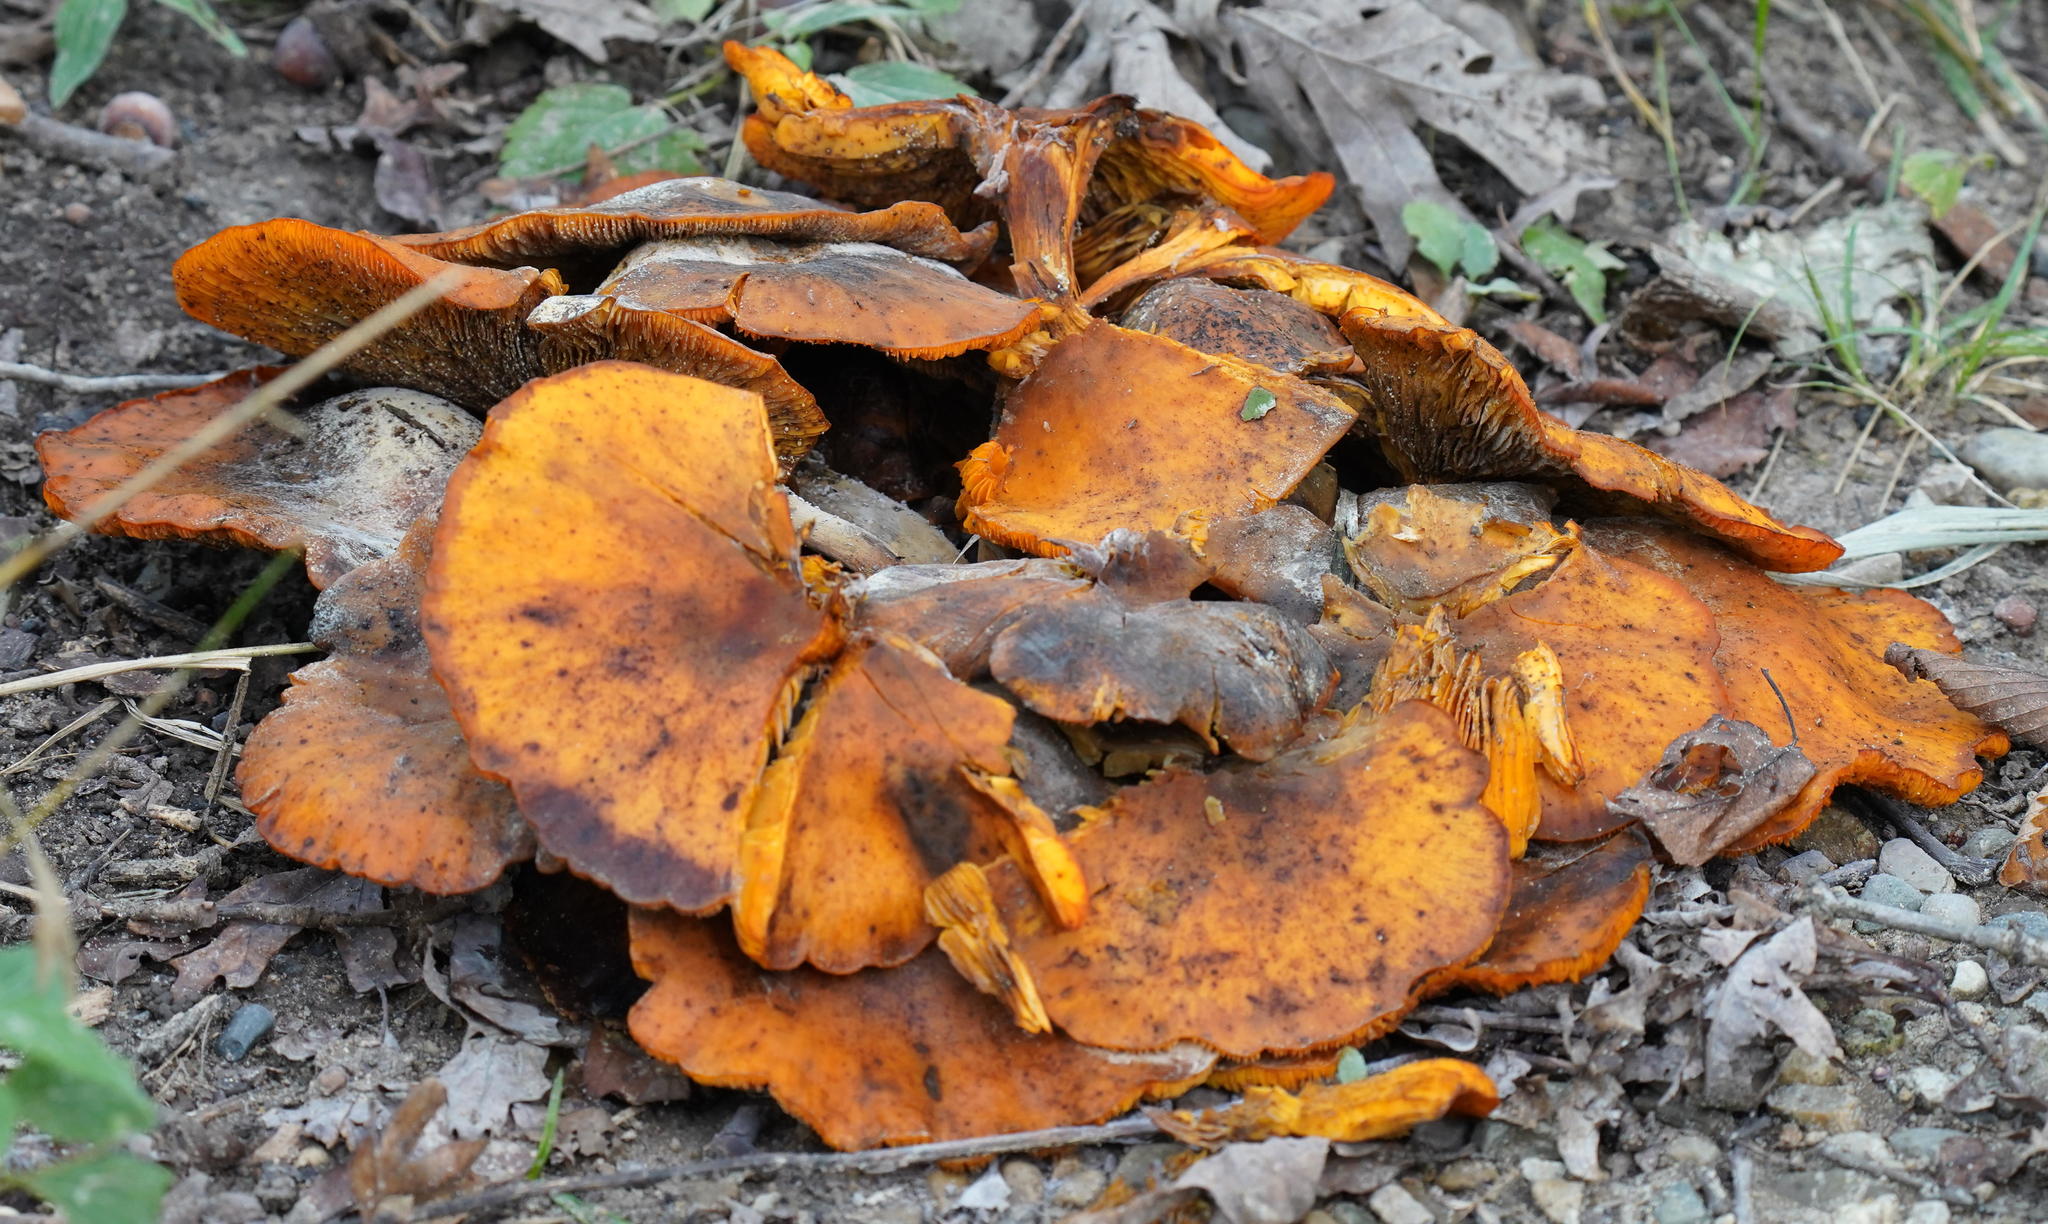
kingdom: Fungi
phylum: Basidiomycota
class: Agaricomycetes
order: Agaricales
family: Omphalotaceae
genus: Omphalotus
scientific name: Omphalotus illudens
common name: Jack o lantern
